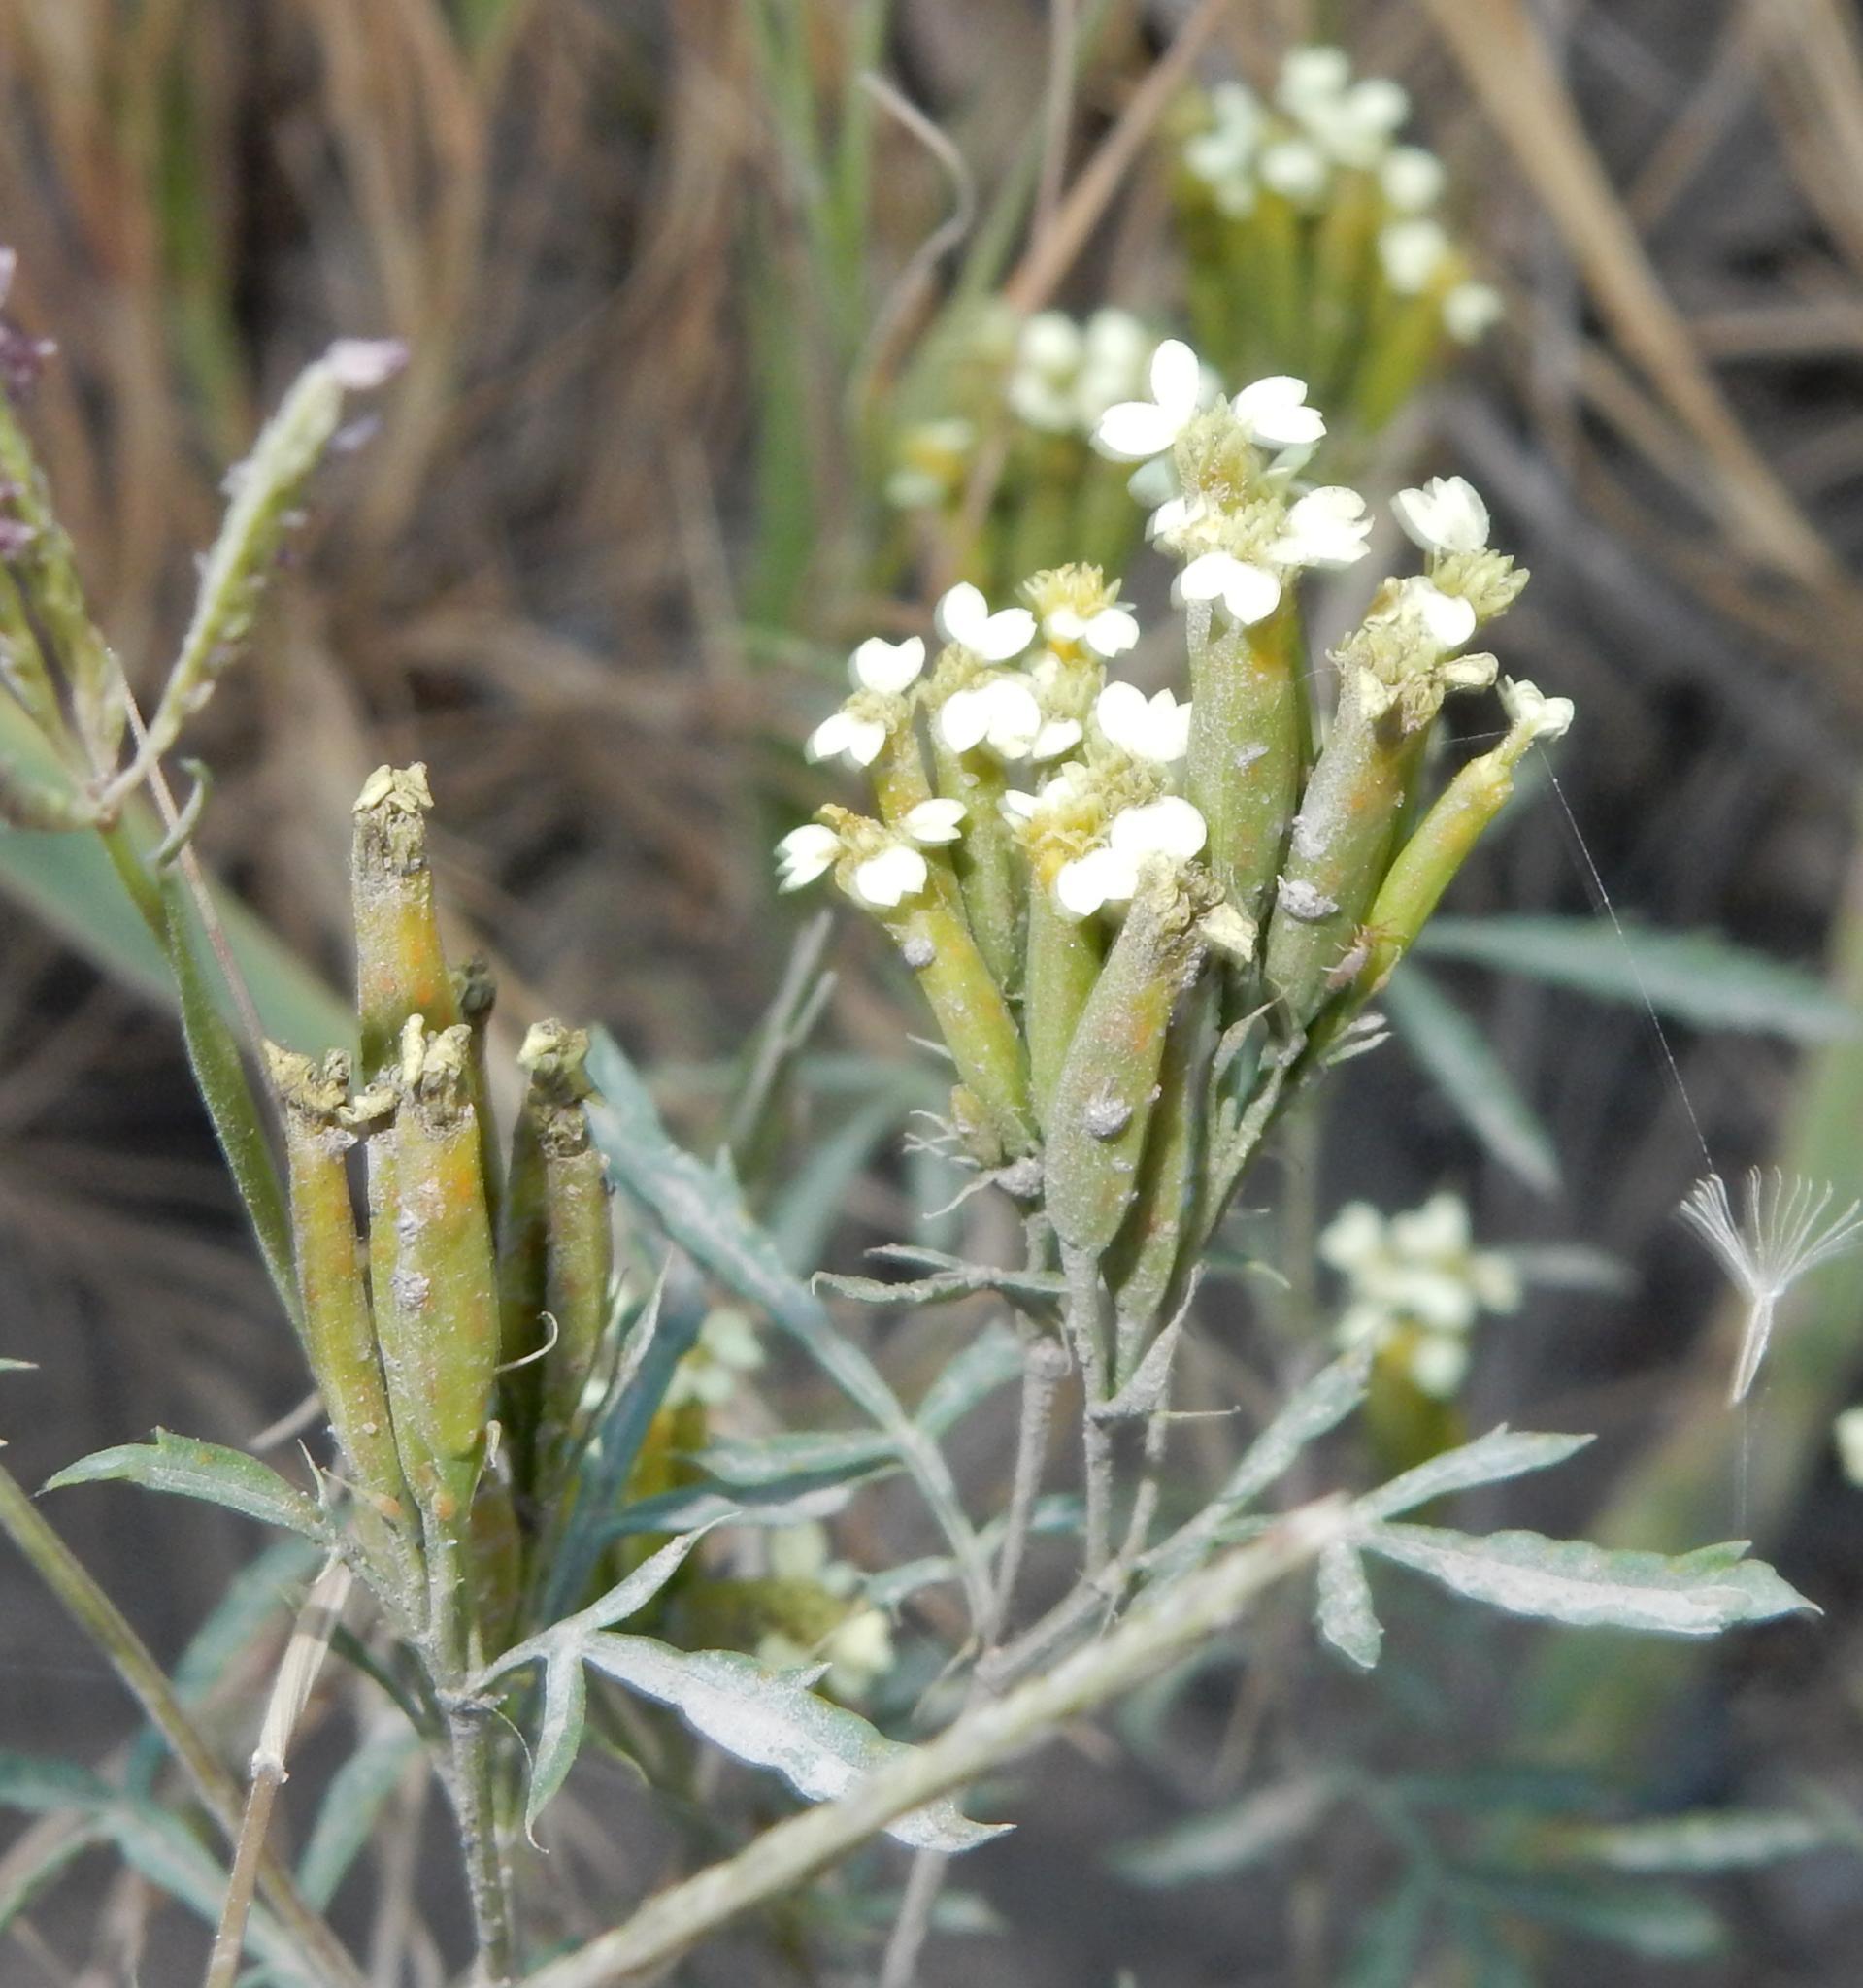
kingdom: Plantae
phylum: Tracheophyta
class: Magnoliopsida
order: Asterales
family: Asteraceae
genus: Tagetes
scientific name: Tagetes minuta
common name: Muster john henry
